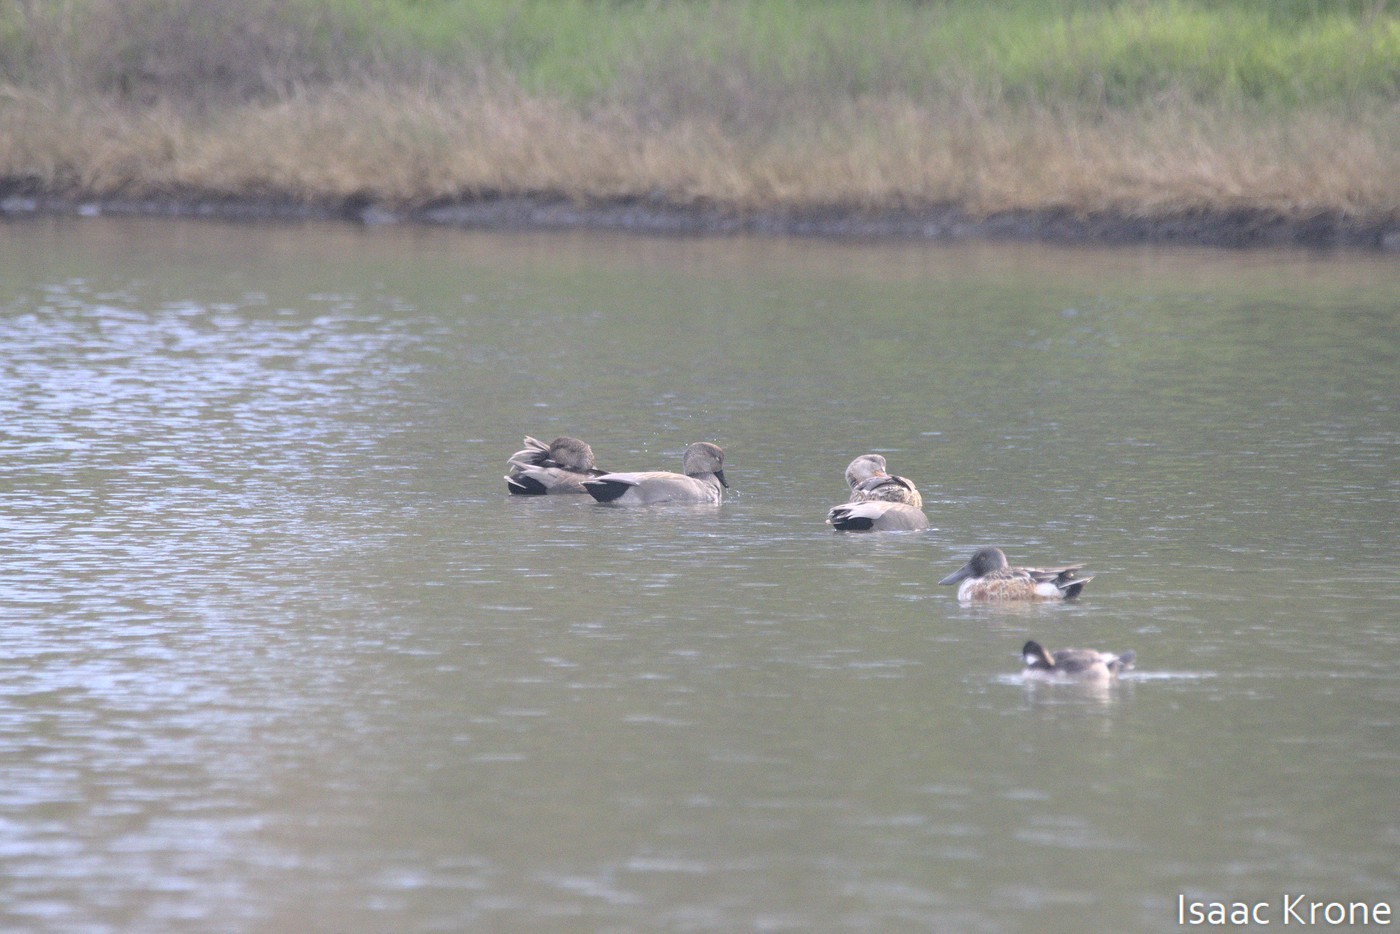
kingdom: Animalia
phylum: Chordata
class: Aves
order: Anseriformes
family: Anatidae
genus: Mareca
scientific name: Mareca strepera
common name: Gadwall
